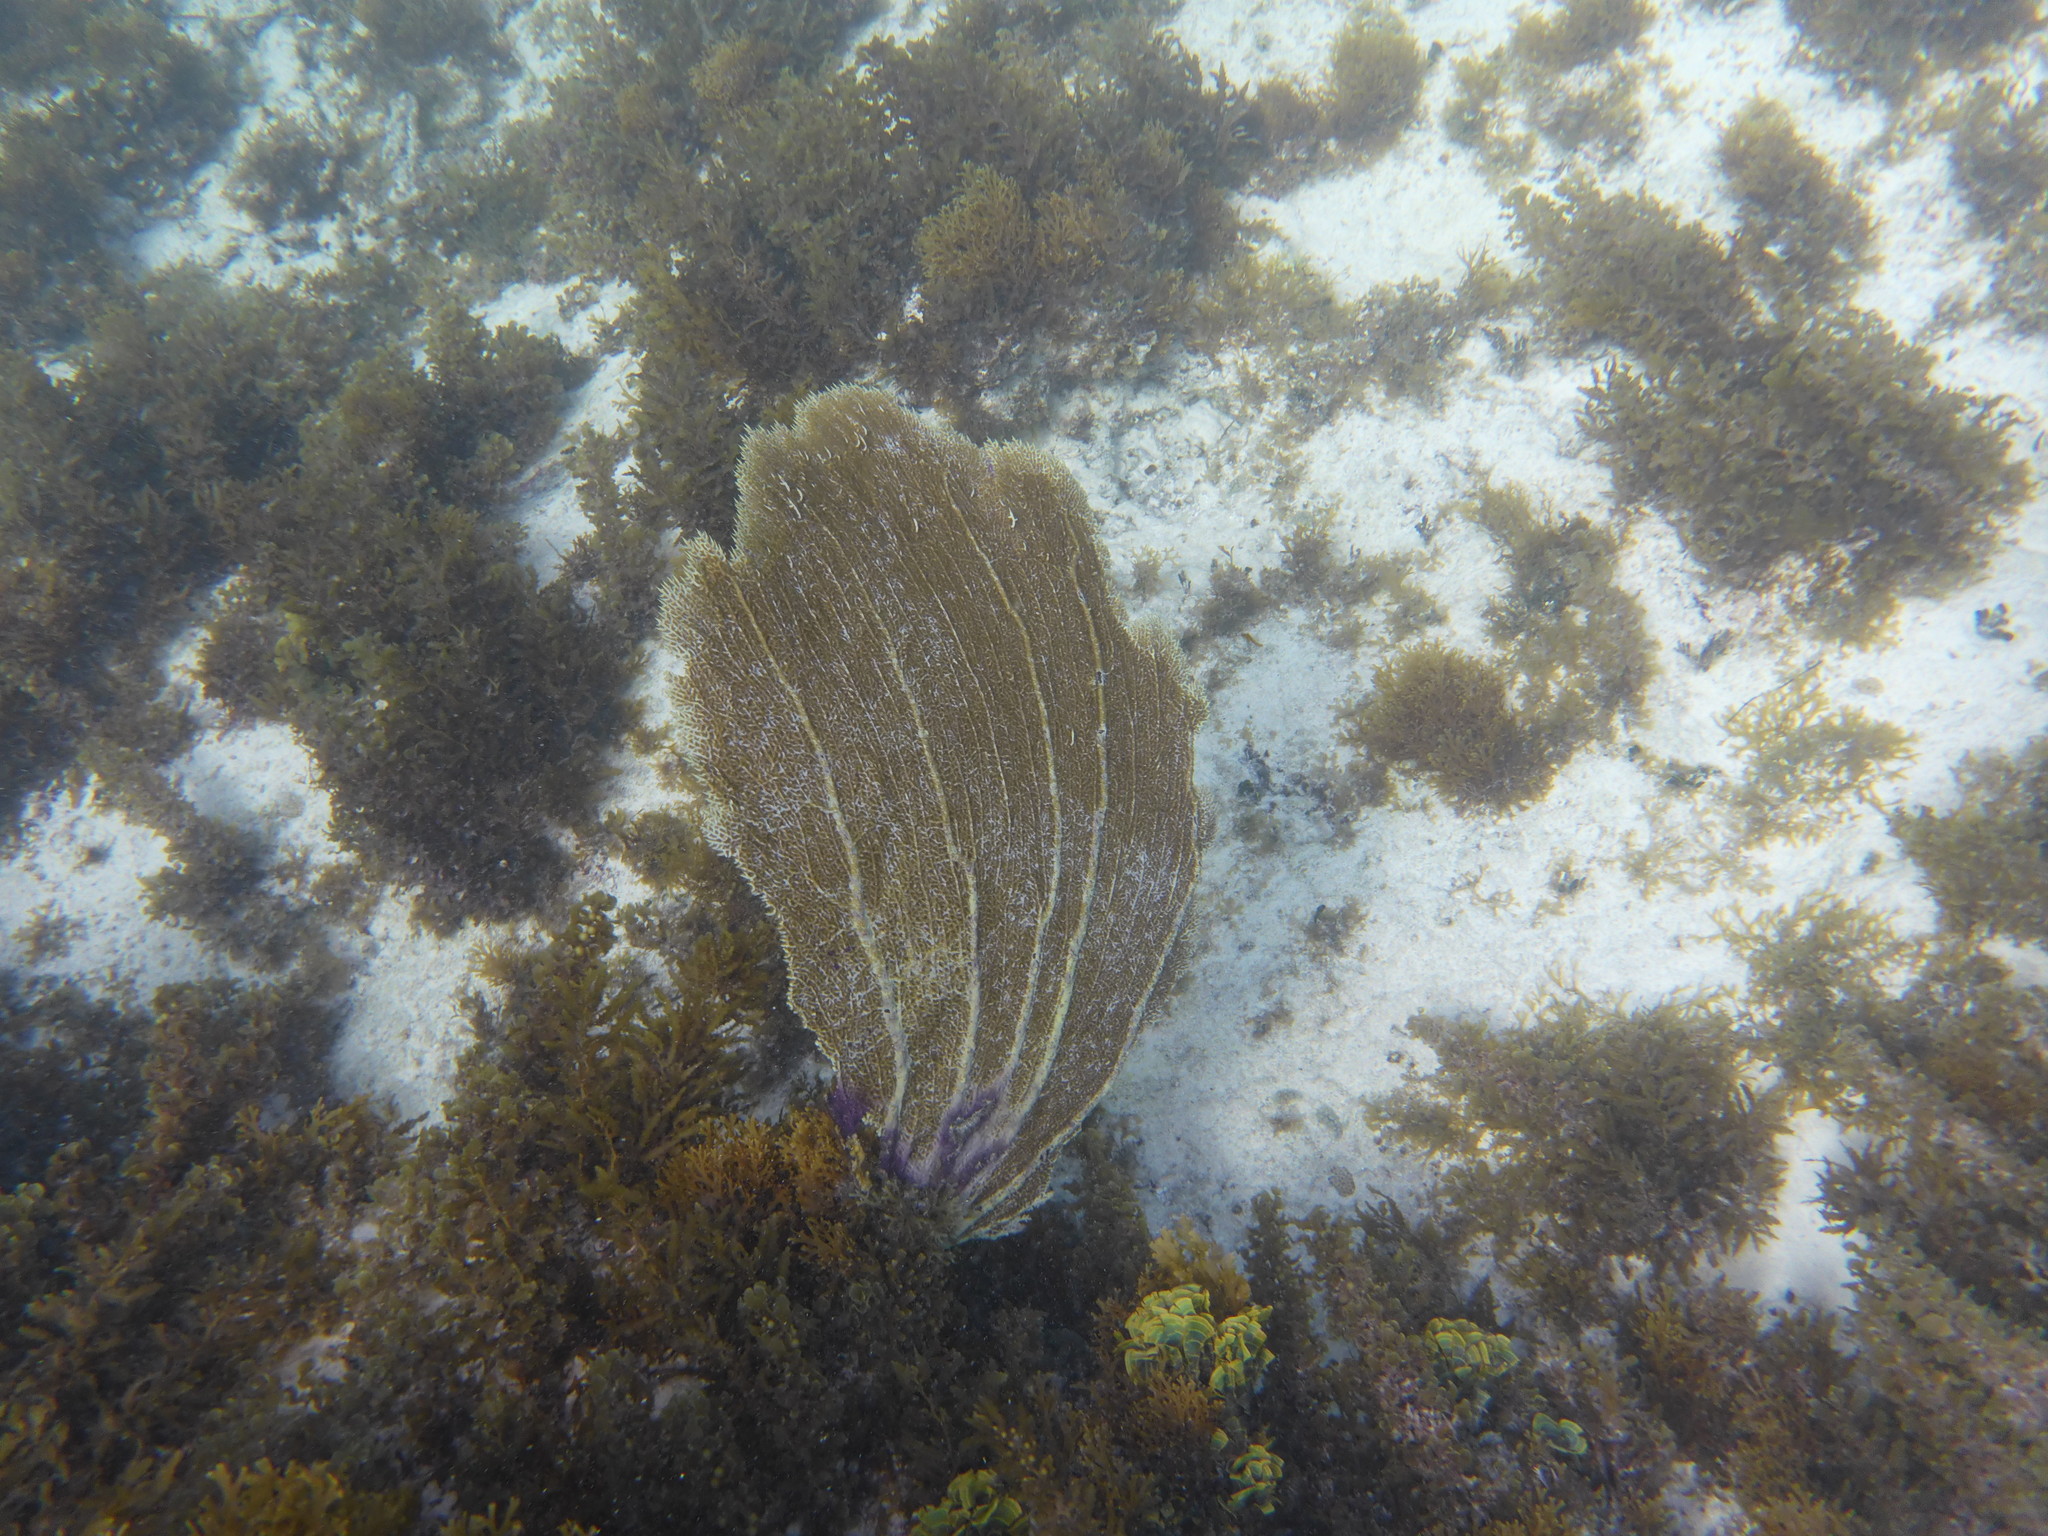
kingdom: Animalia
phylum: Cnidaria
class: Anthozoa
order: Malacalcyonacea
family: Gorgoniidae
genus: Gorgonia
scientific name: Gorgonia ventalina
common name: Common sea fan
